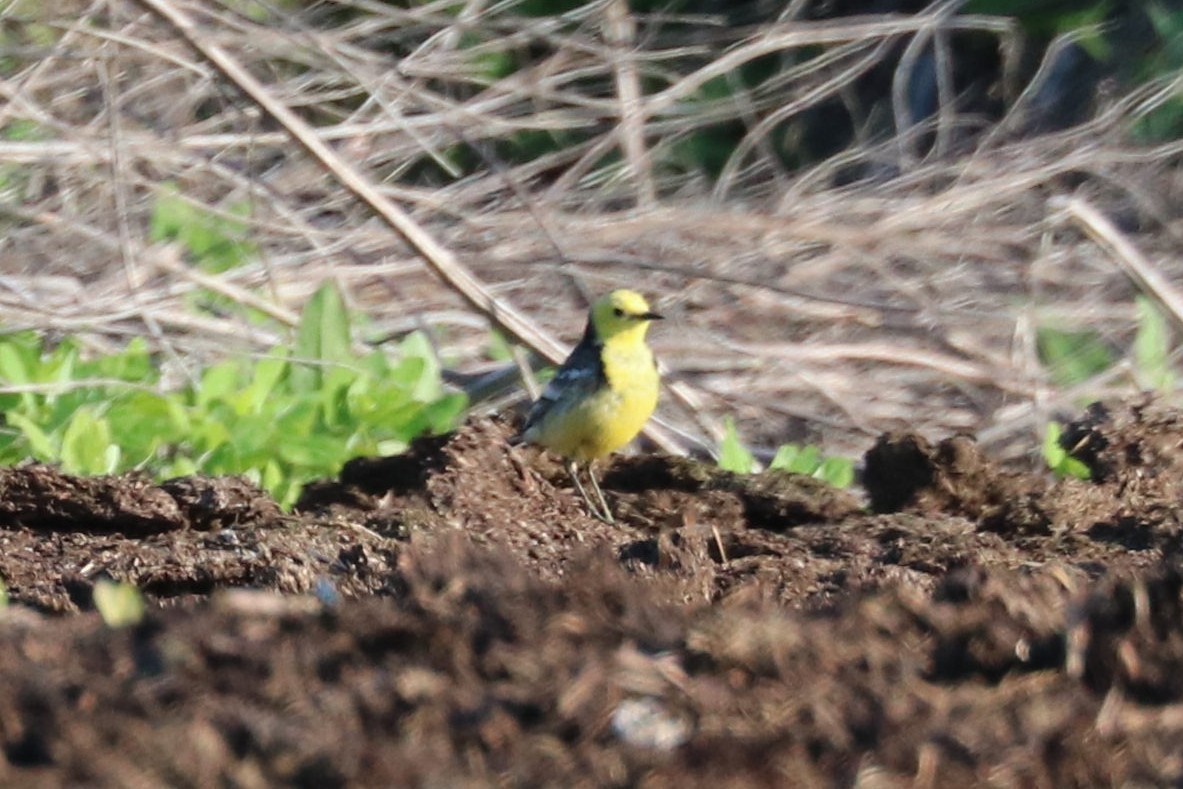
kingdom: Animalia
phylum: Chordata
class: Aves
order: Passeriformes
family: Motacillidae
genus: Motacilla
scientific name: Motacilla citreola
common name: Citrine wagtail
